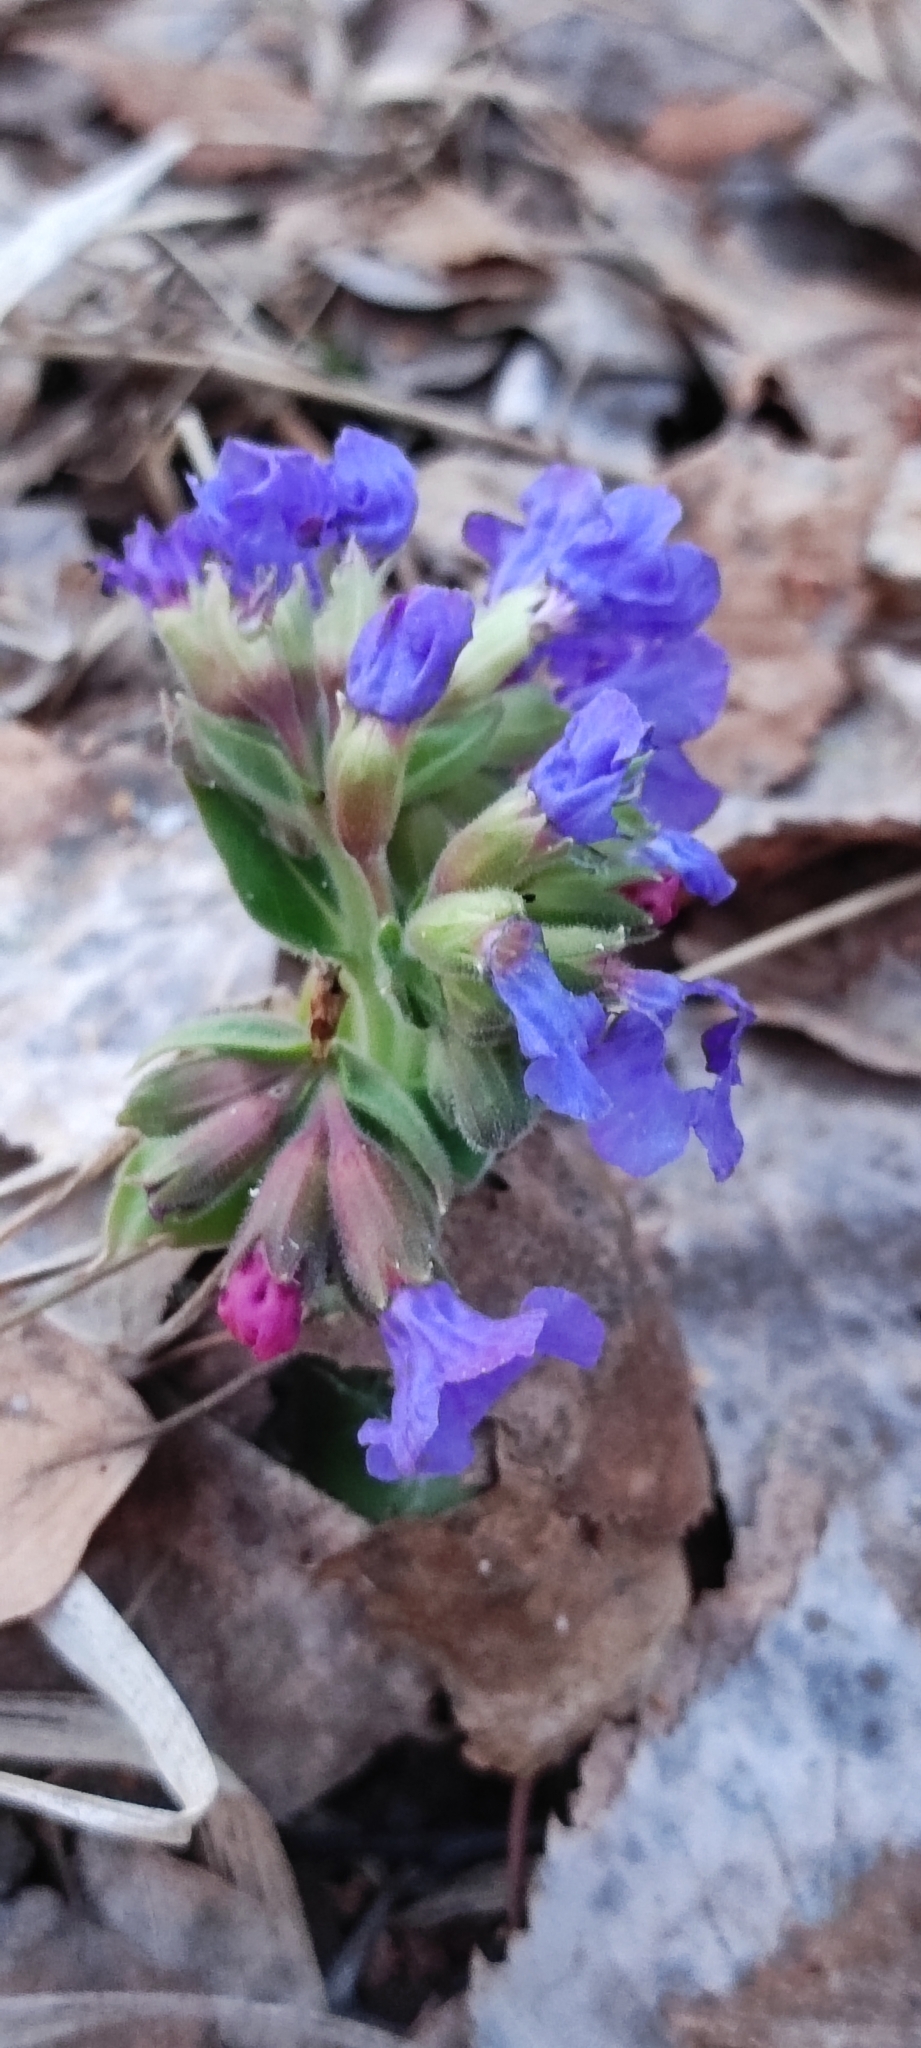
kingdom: Plantae
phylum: Tracheophyta
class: Magnoliopsida
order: Boraginales
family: Boraginaceae
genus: Pulmonaria
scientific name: Pulmonaria mollis
